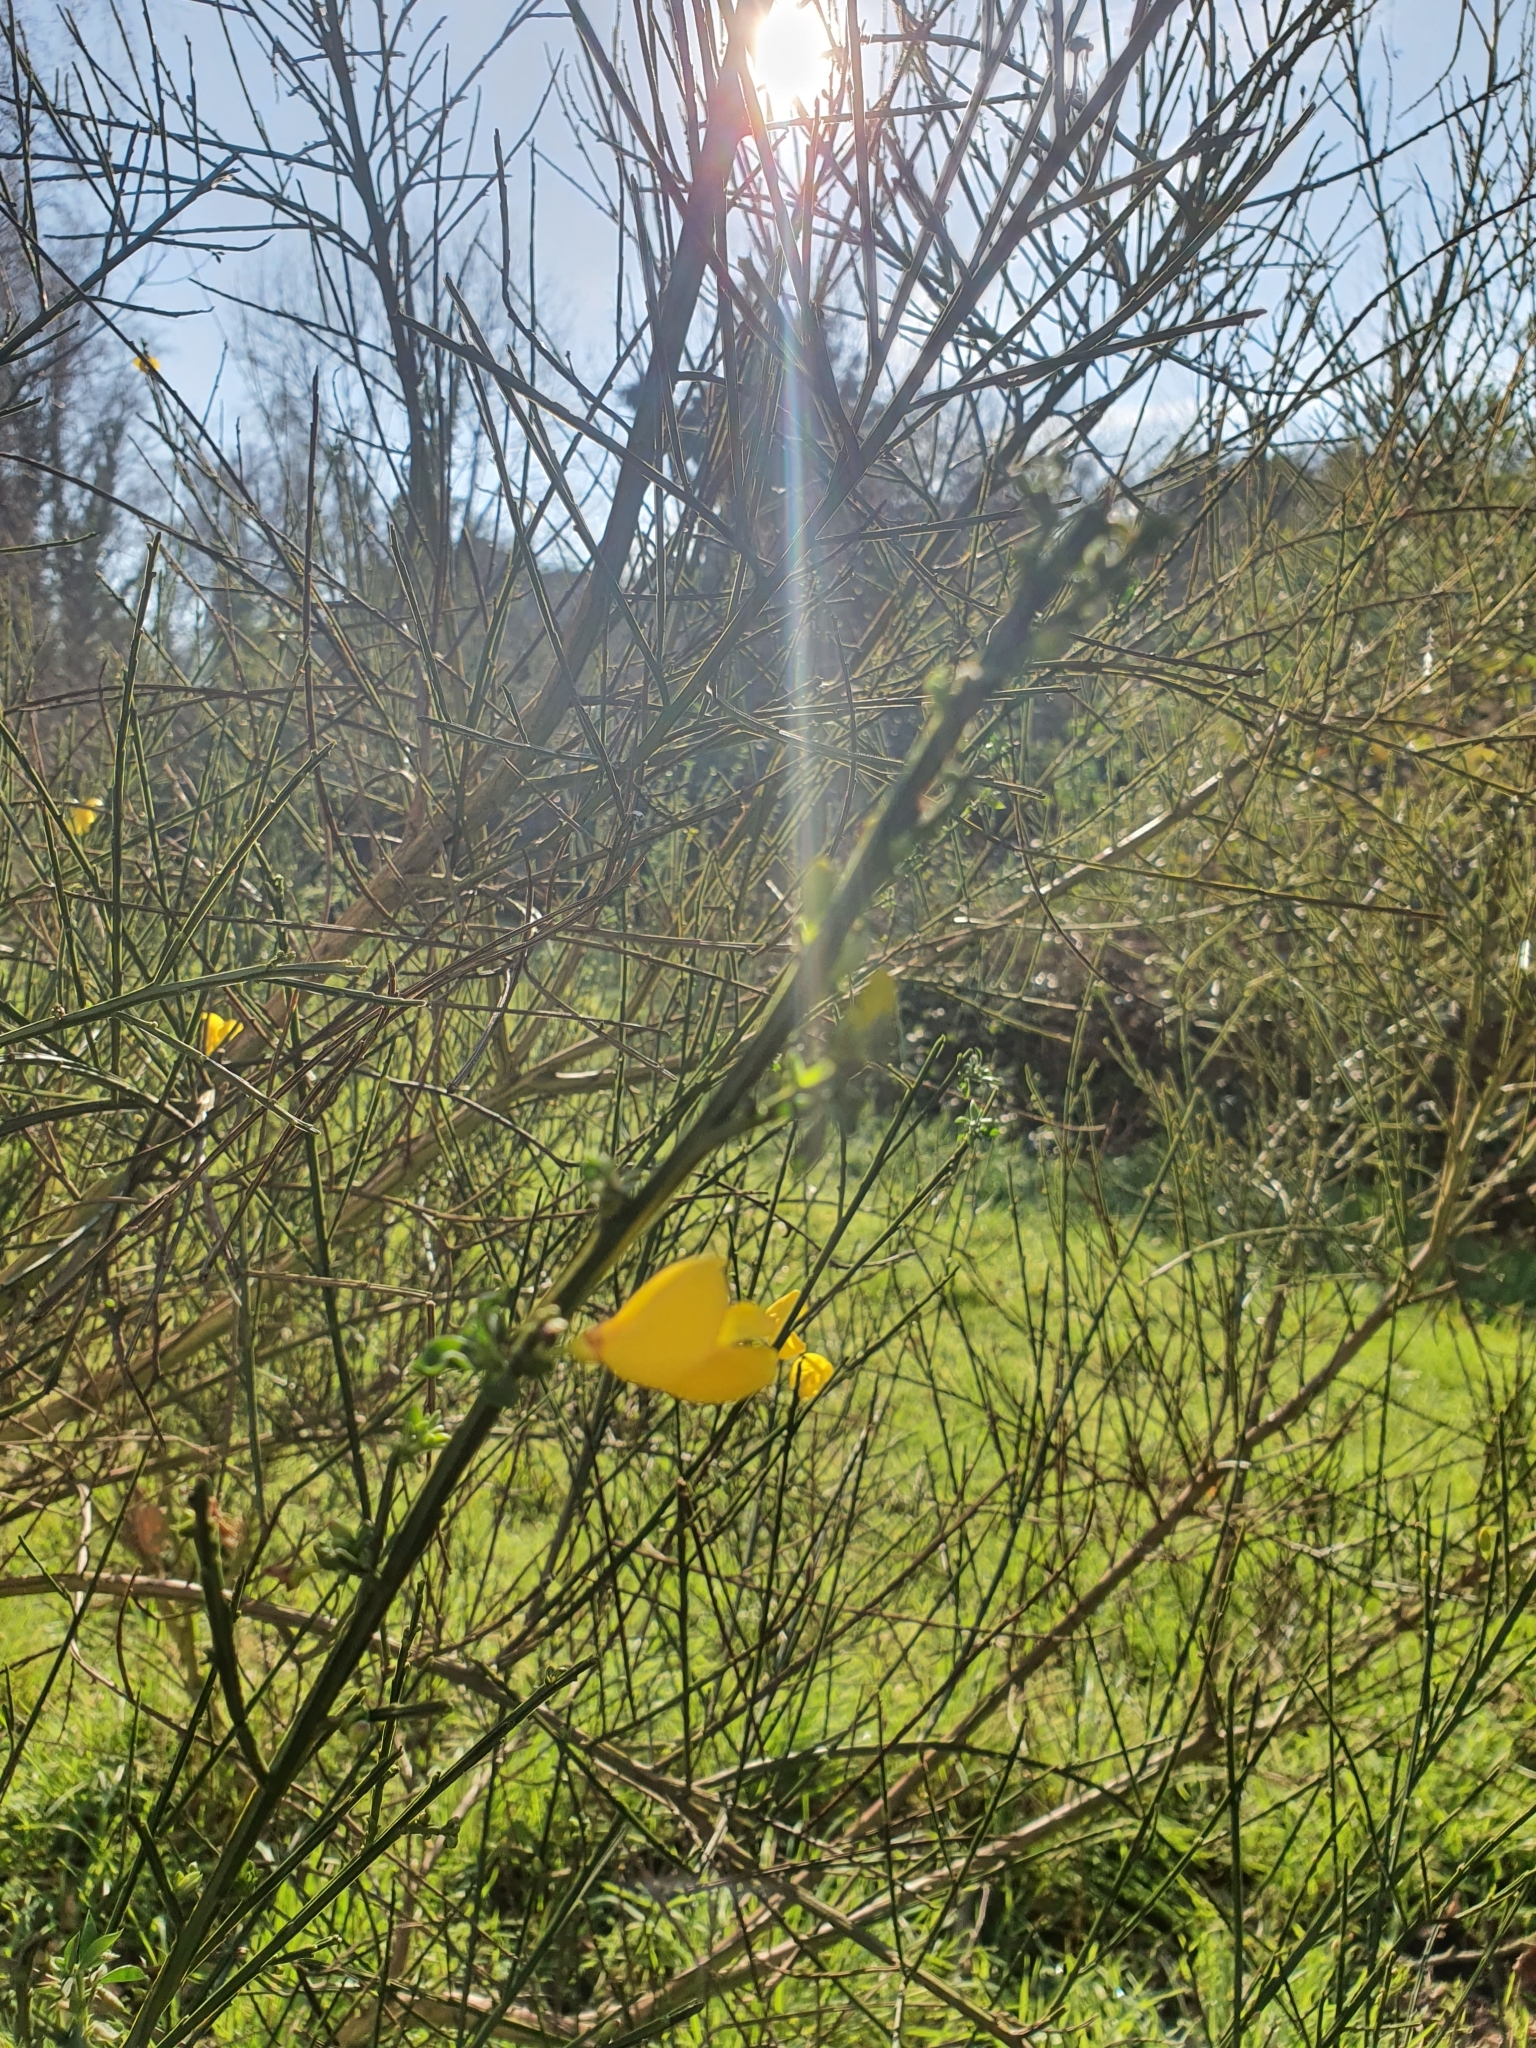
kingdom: Plantae
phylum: Tracheophyta
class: Magnoliopsida
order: Fabales
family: Fabaceae
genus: Cytisus
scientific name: Cytisus scoparius
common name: Scotch broom
